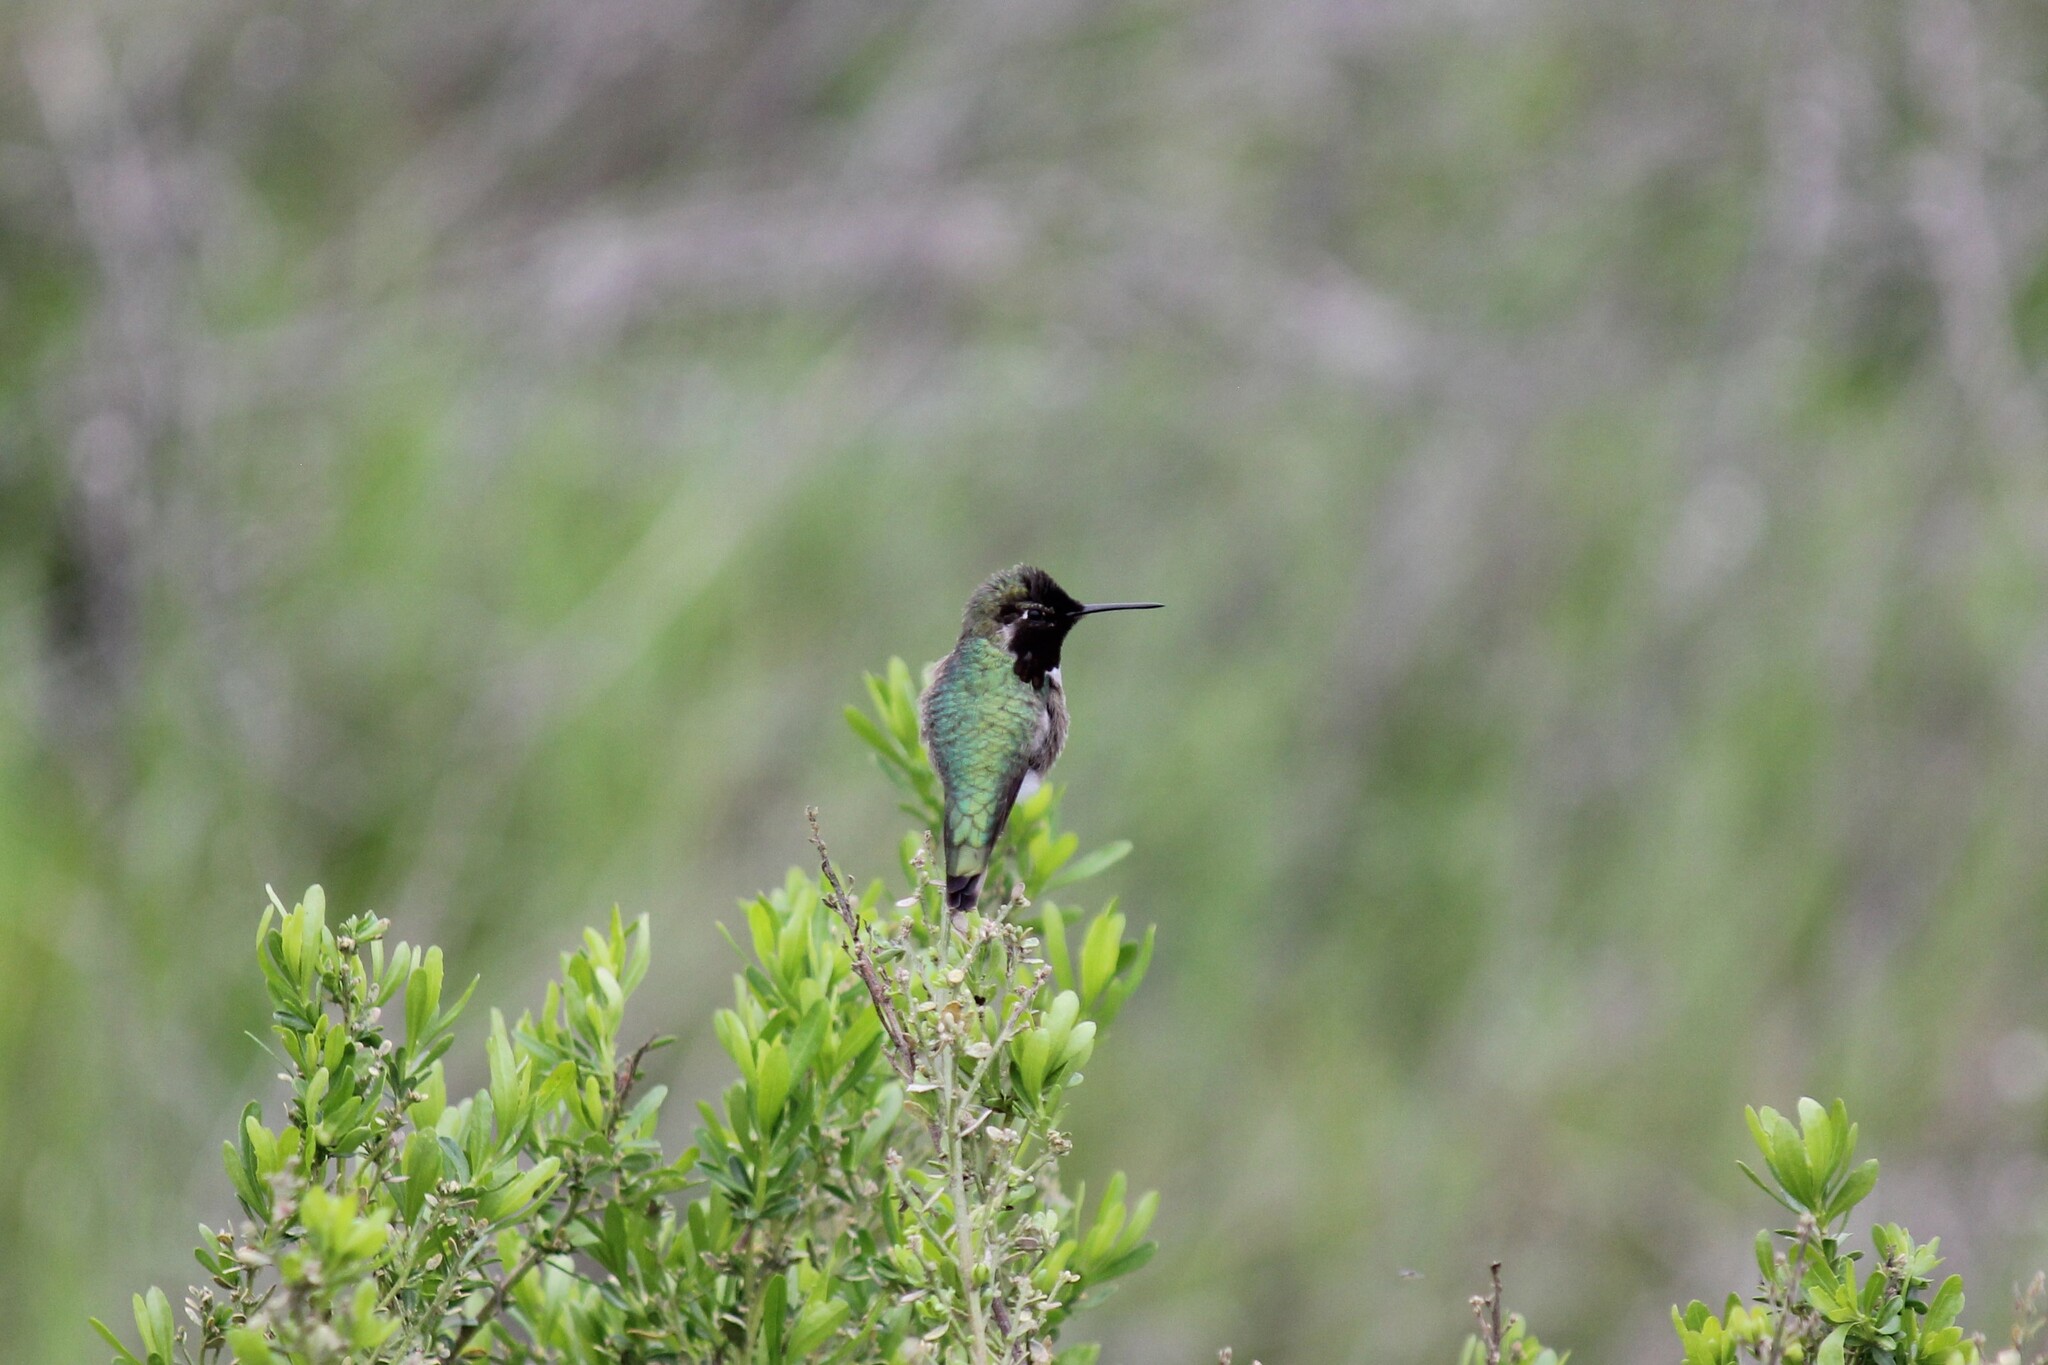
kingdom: Animalia
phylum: Chordata
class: Aves
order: Apodiformes
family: Trochilidae
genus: Calypte
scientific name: Calypte anna
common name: Anna's hummingbird
